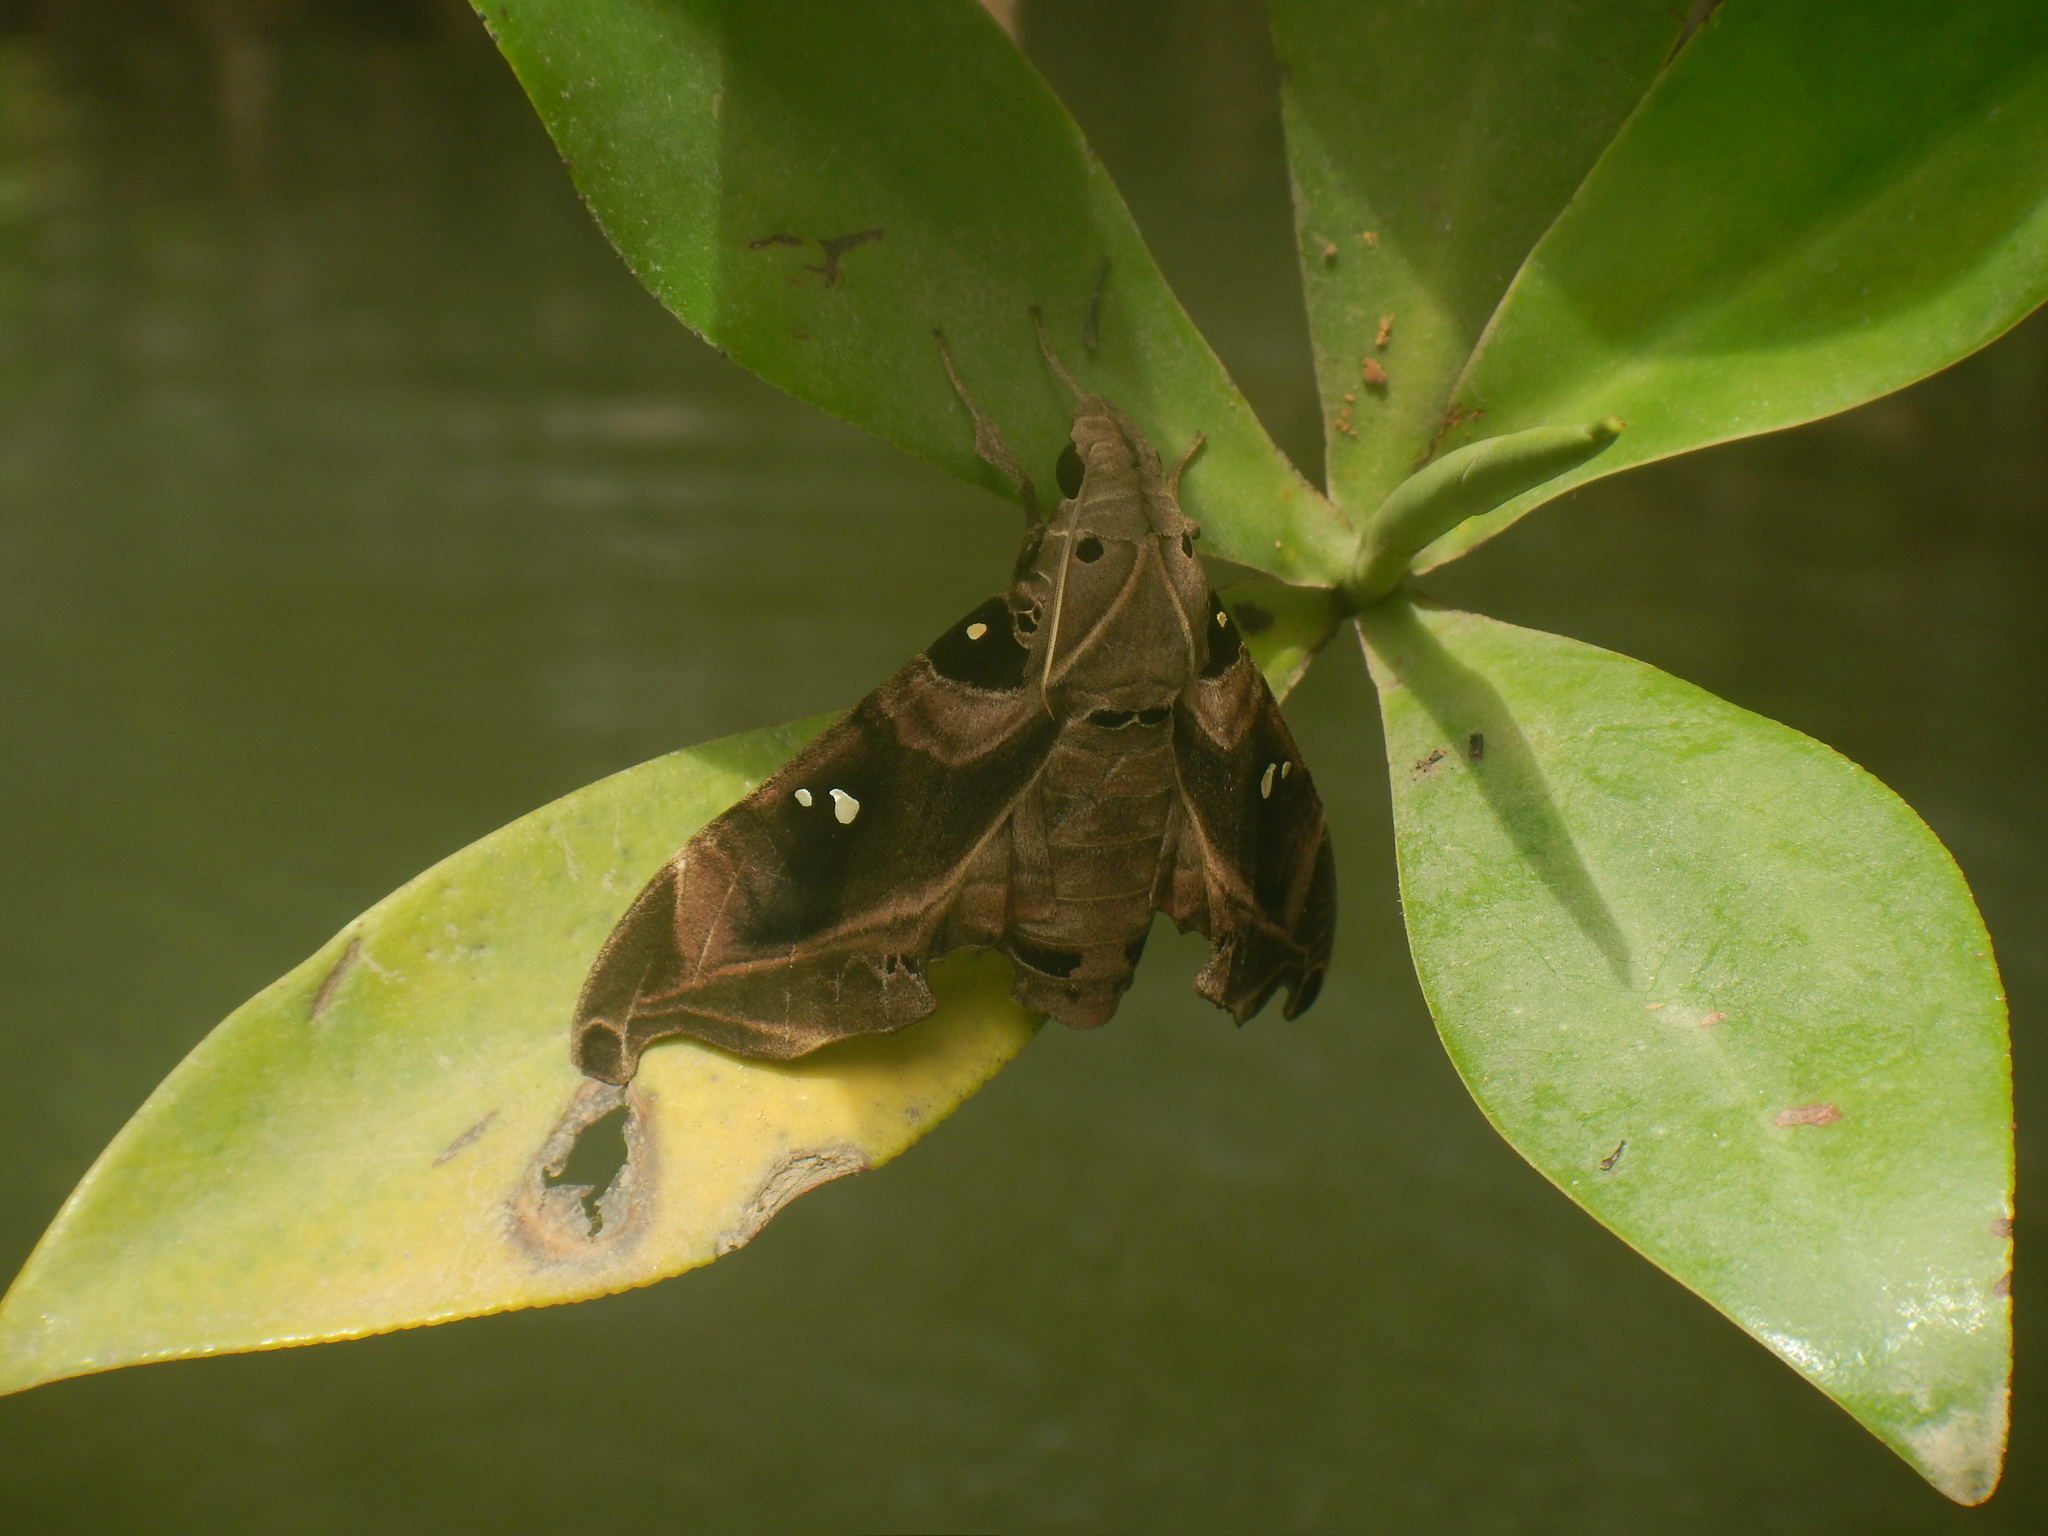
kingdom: Animalia
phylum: Arthropoda
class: Insecta
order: Lepidoptera
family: Sphingidae
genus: Madoryx
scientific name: Madoryx bubastus
